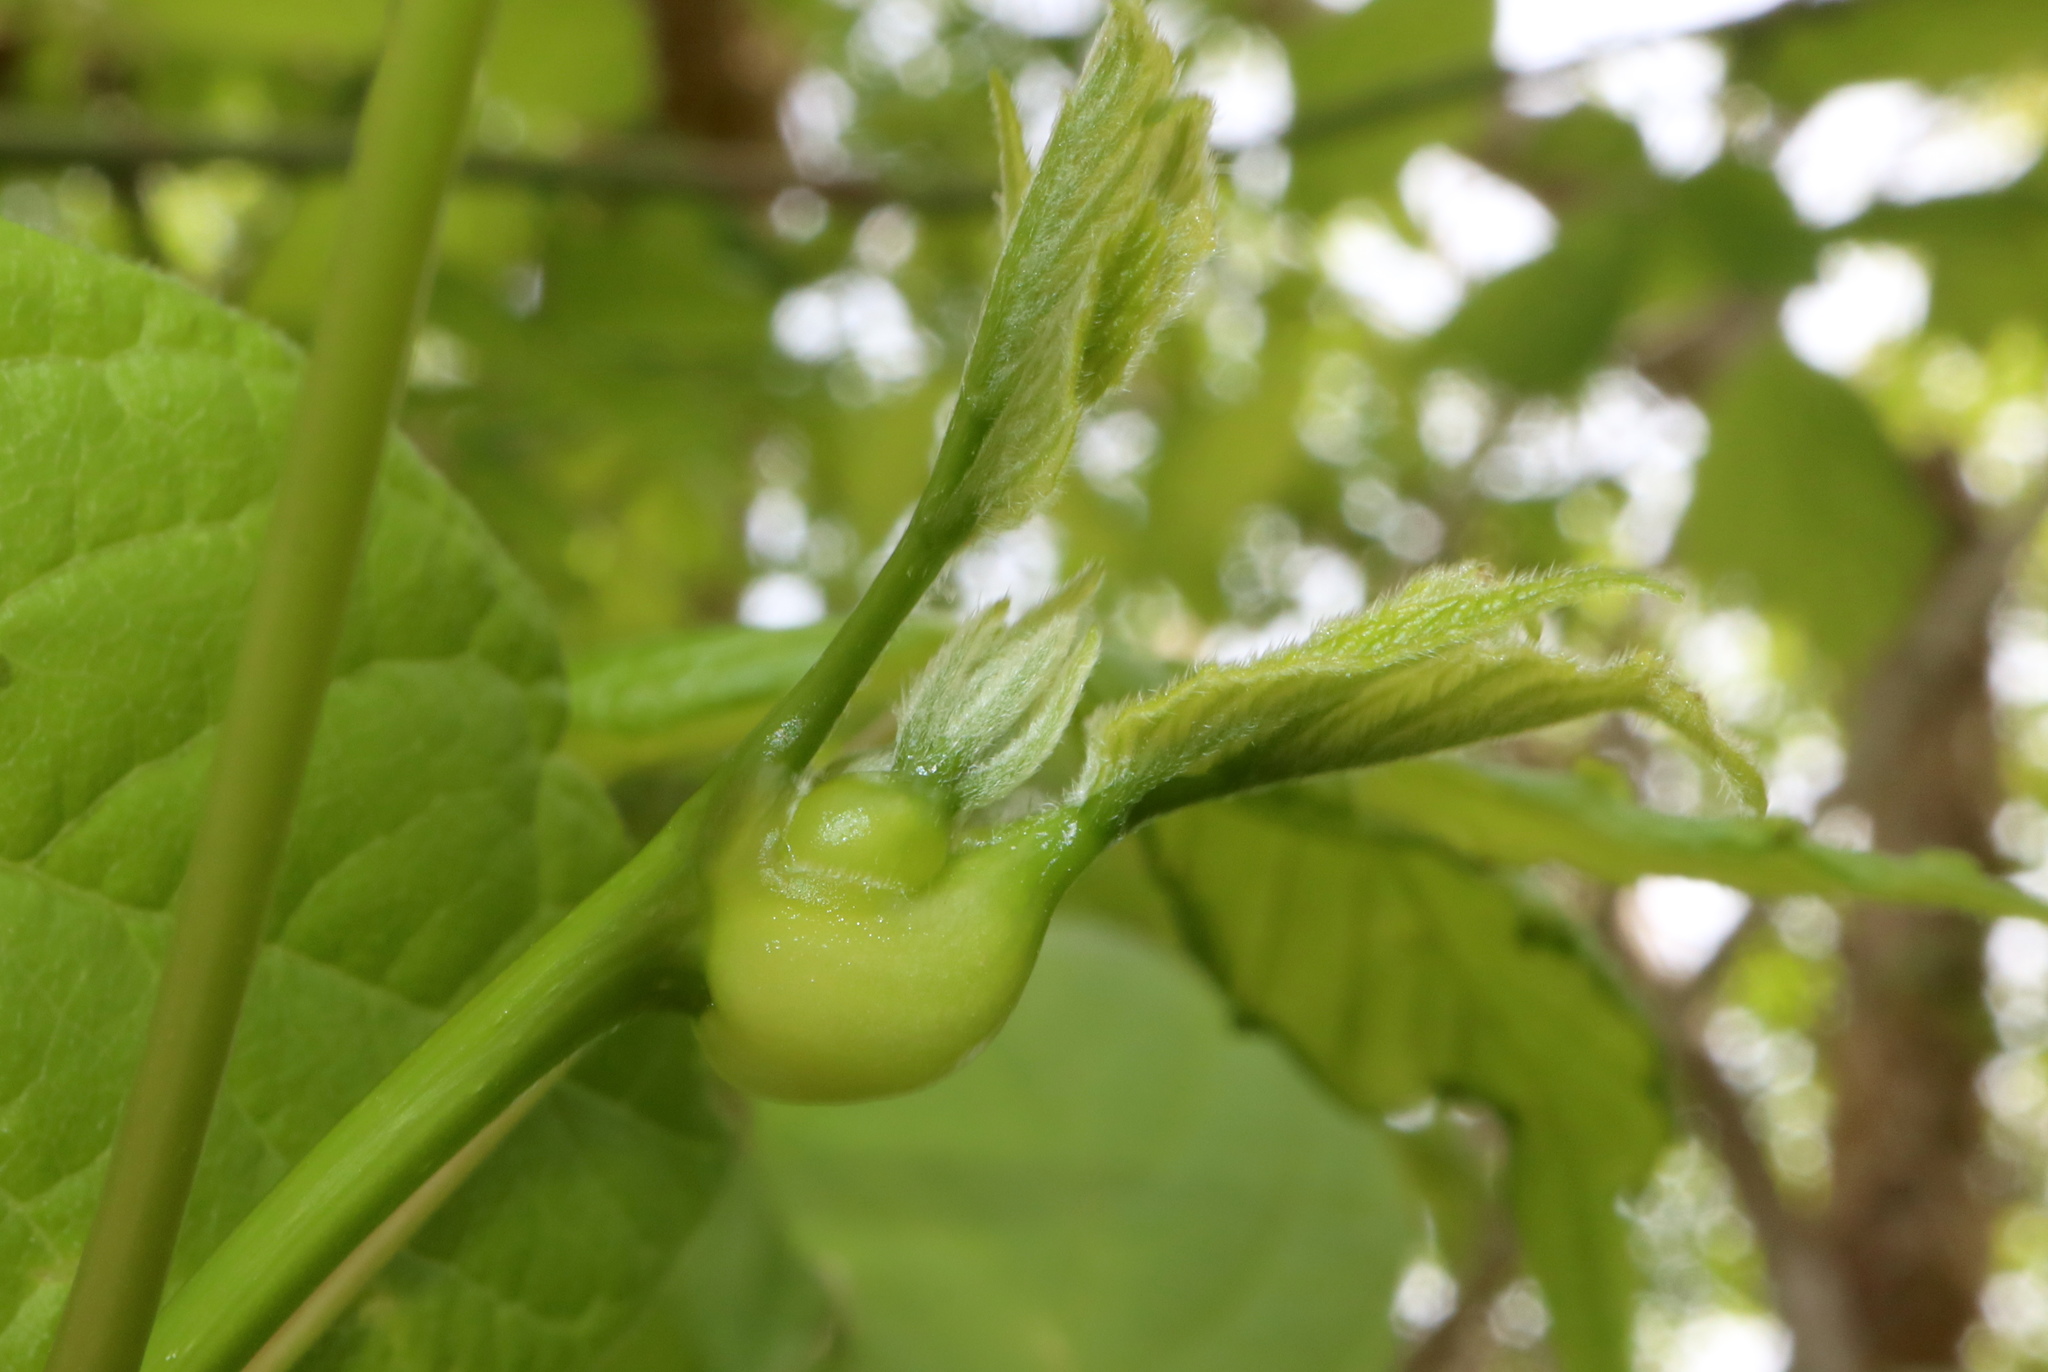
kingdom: Animalia
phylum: Arthropoda
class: Insecta
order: Diptera
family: Cecidomyiidae
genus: Contarinia
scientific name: Contarinia negundinis
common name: Boxelder budgall midge
